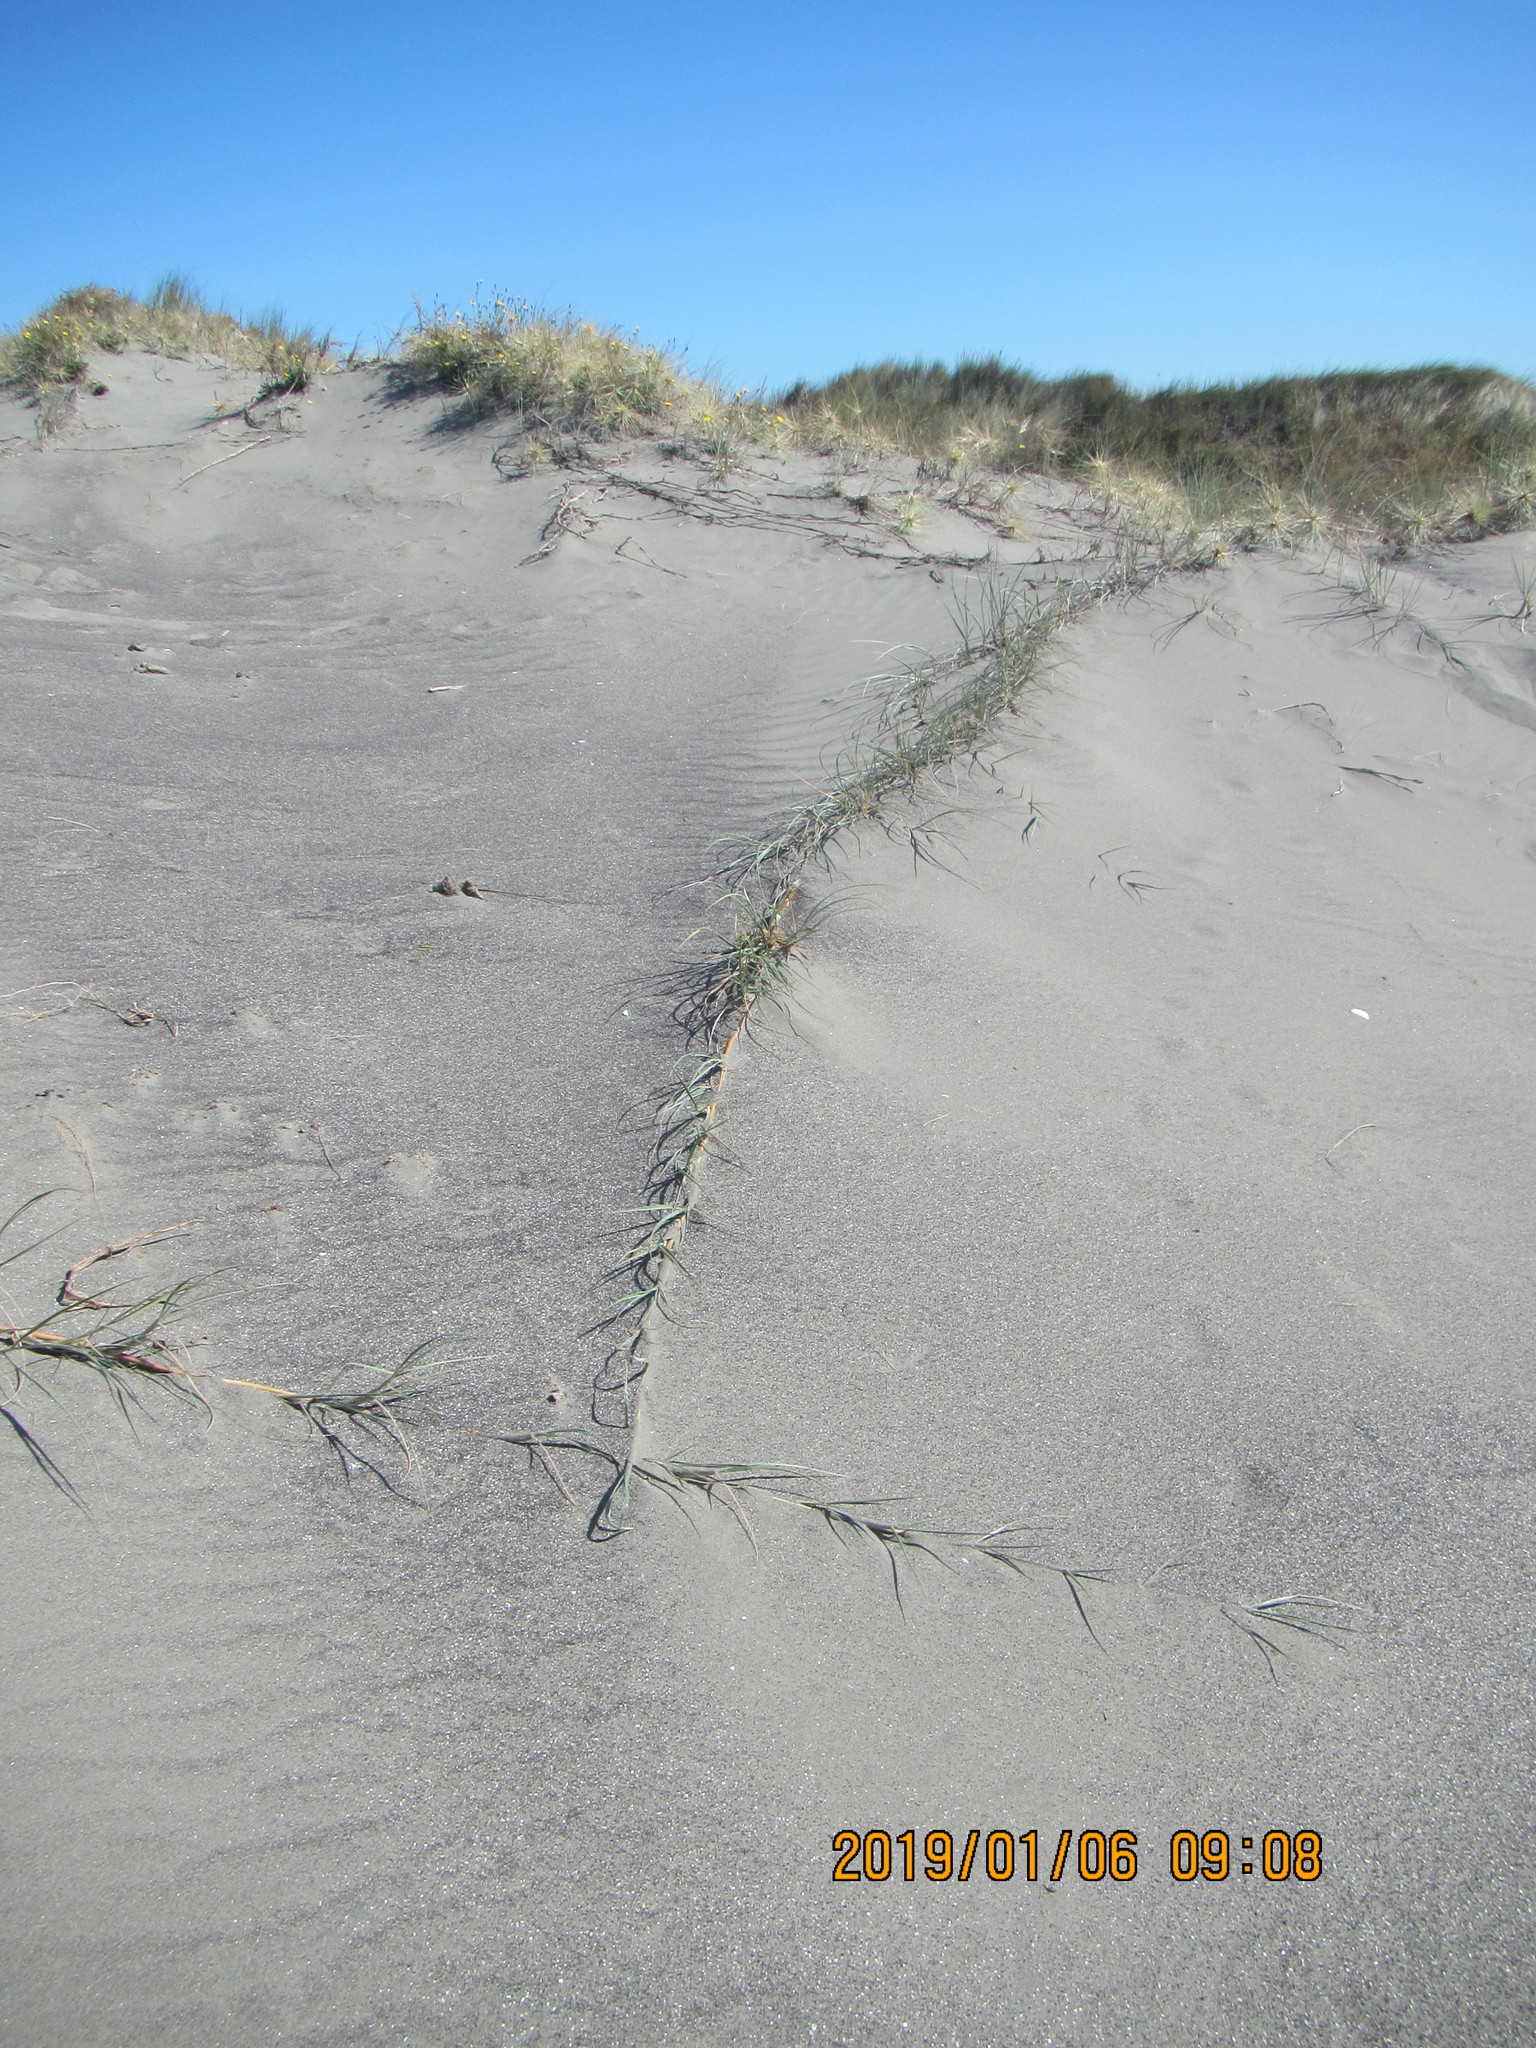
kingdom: Plantae
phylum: Tracheophyta
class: Liliopsida
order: Poales
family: Poaceae
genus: Spinifex
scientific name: Spinifex sericeus
